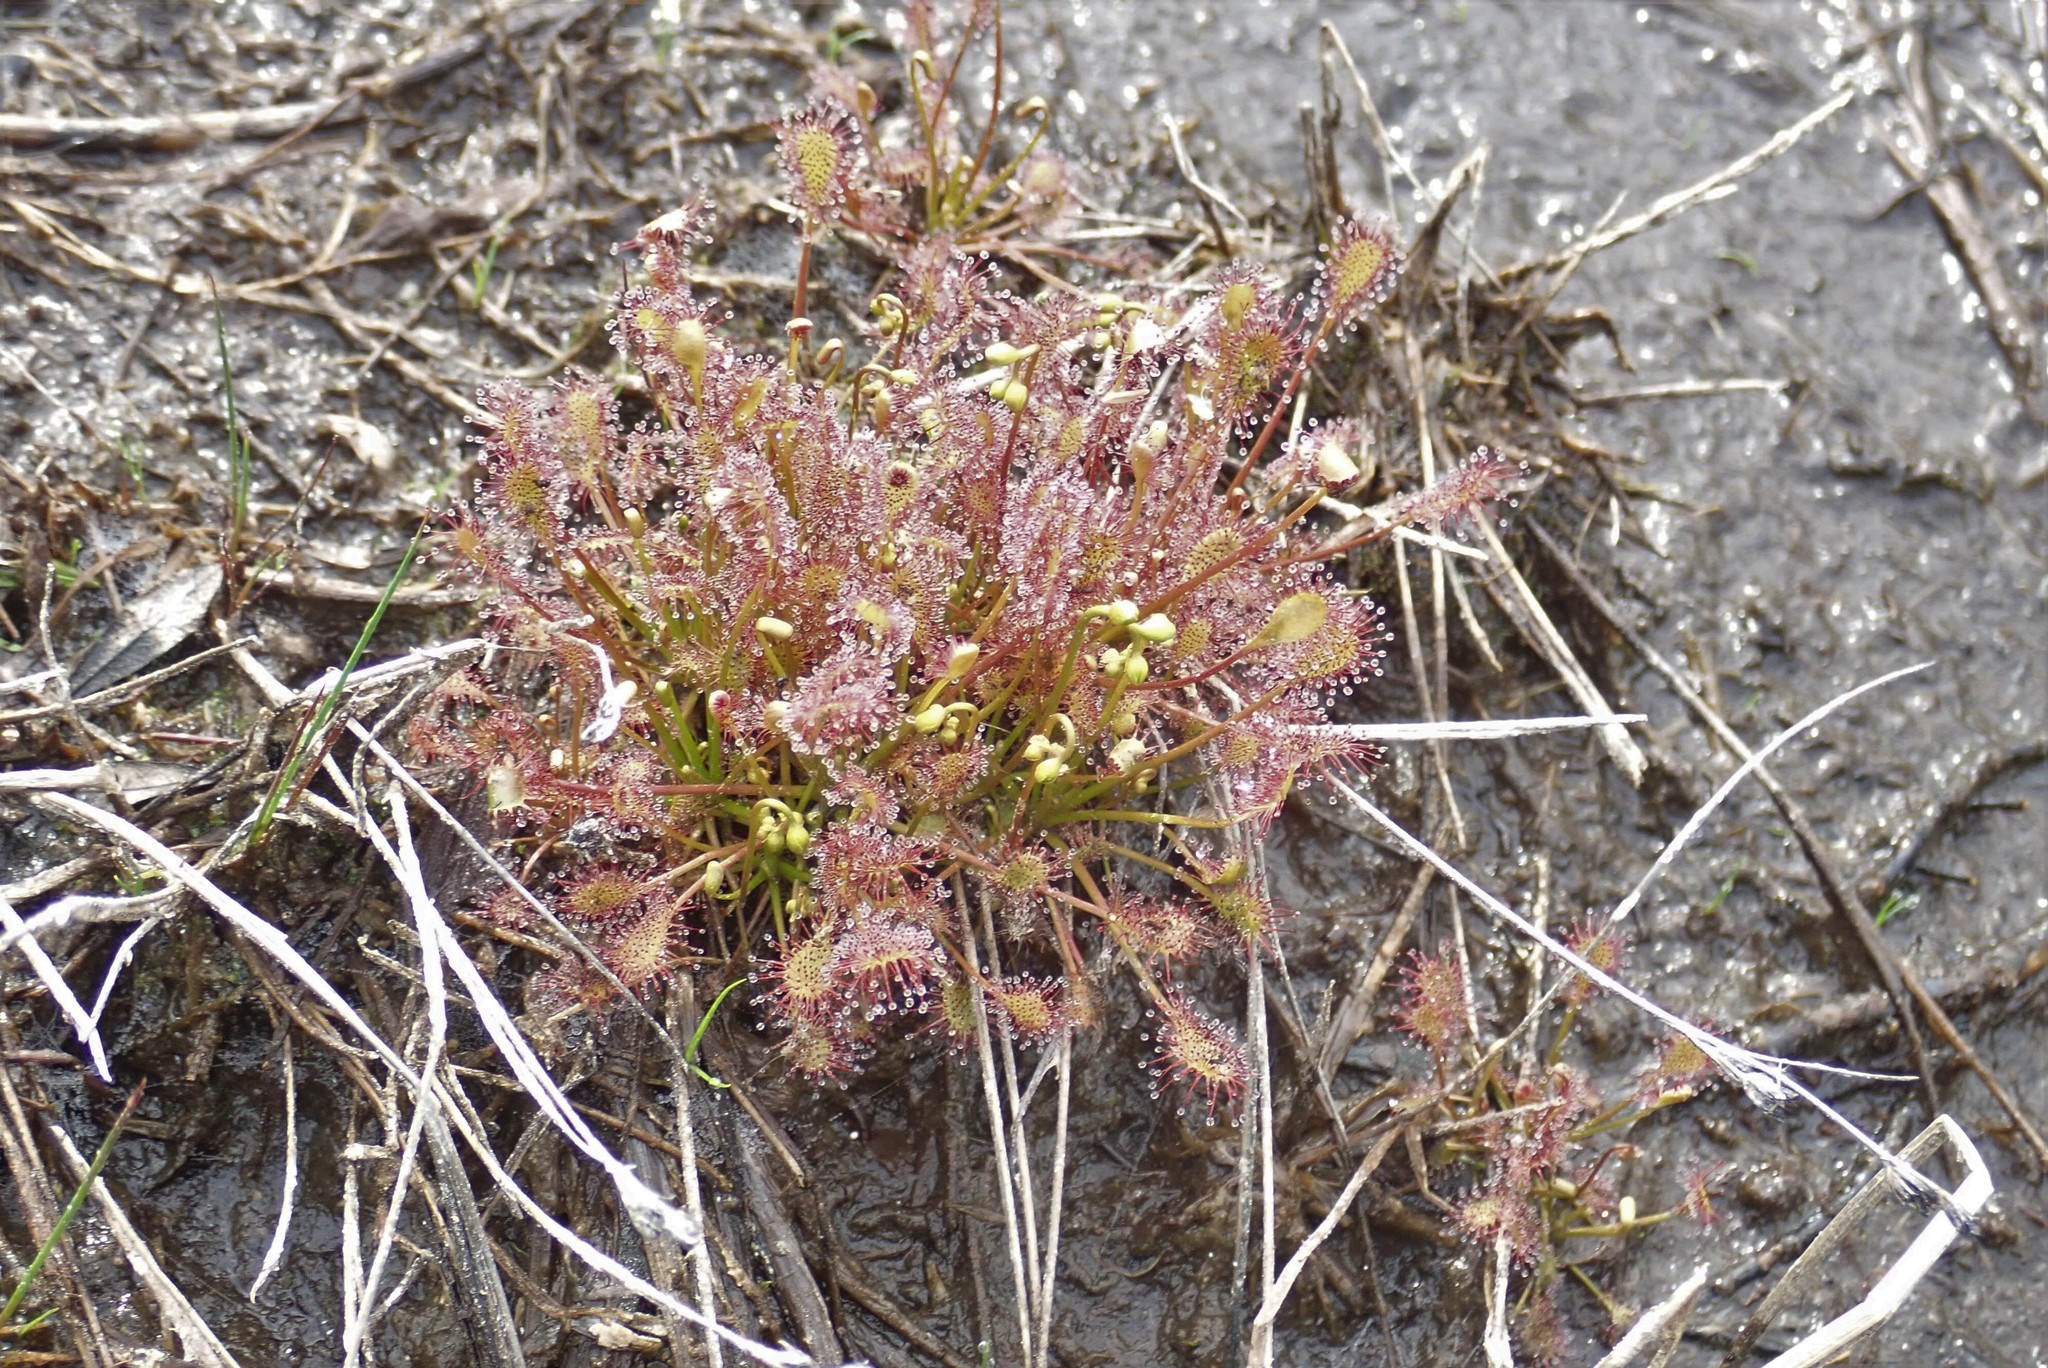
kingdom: Plantae
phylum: Tracheophyta
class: Magnoliopsida
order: Caryophyllales
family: Droseraceae
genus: Drosera
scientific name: Drosera intermedia
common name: Oblong-leaved sundew
